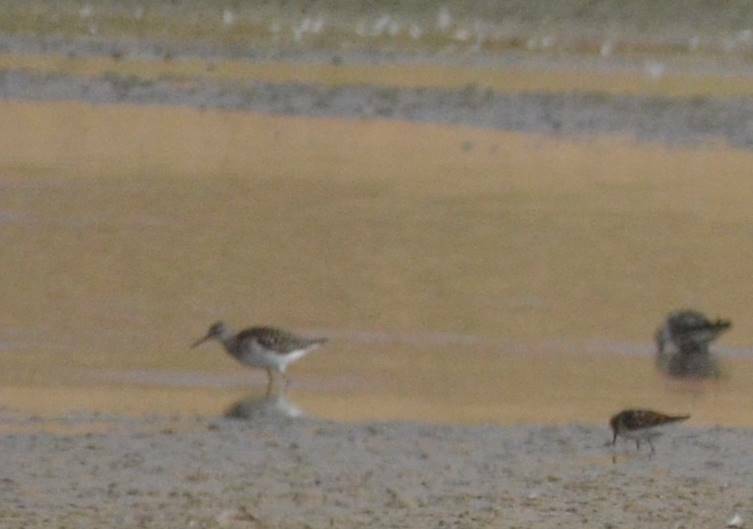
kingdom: Animalia
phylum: Chordata
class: Aves
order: Charadriiformes
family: Scolopacidae
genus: Tringa
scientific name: Tringa glareola
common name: Wood sandpiper
